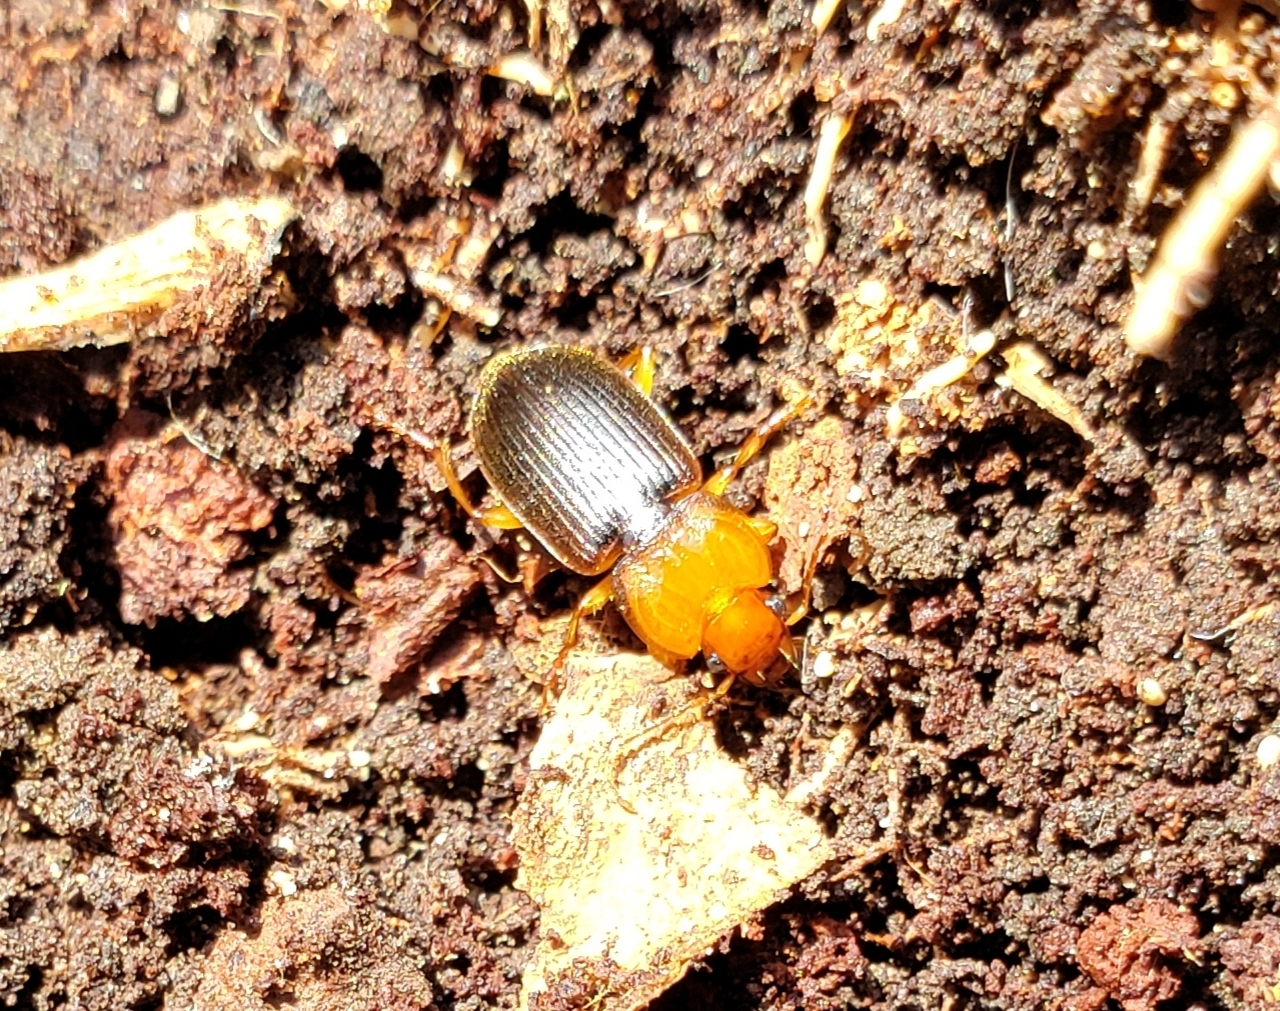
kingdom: Animalia
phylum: Arthropoda
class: Insecta
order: Coleoptera
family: Carabidae
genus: Amphasia
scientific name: Amphasia interstitialis
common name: Red-headed ground beetle
